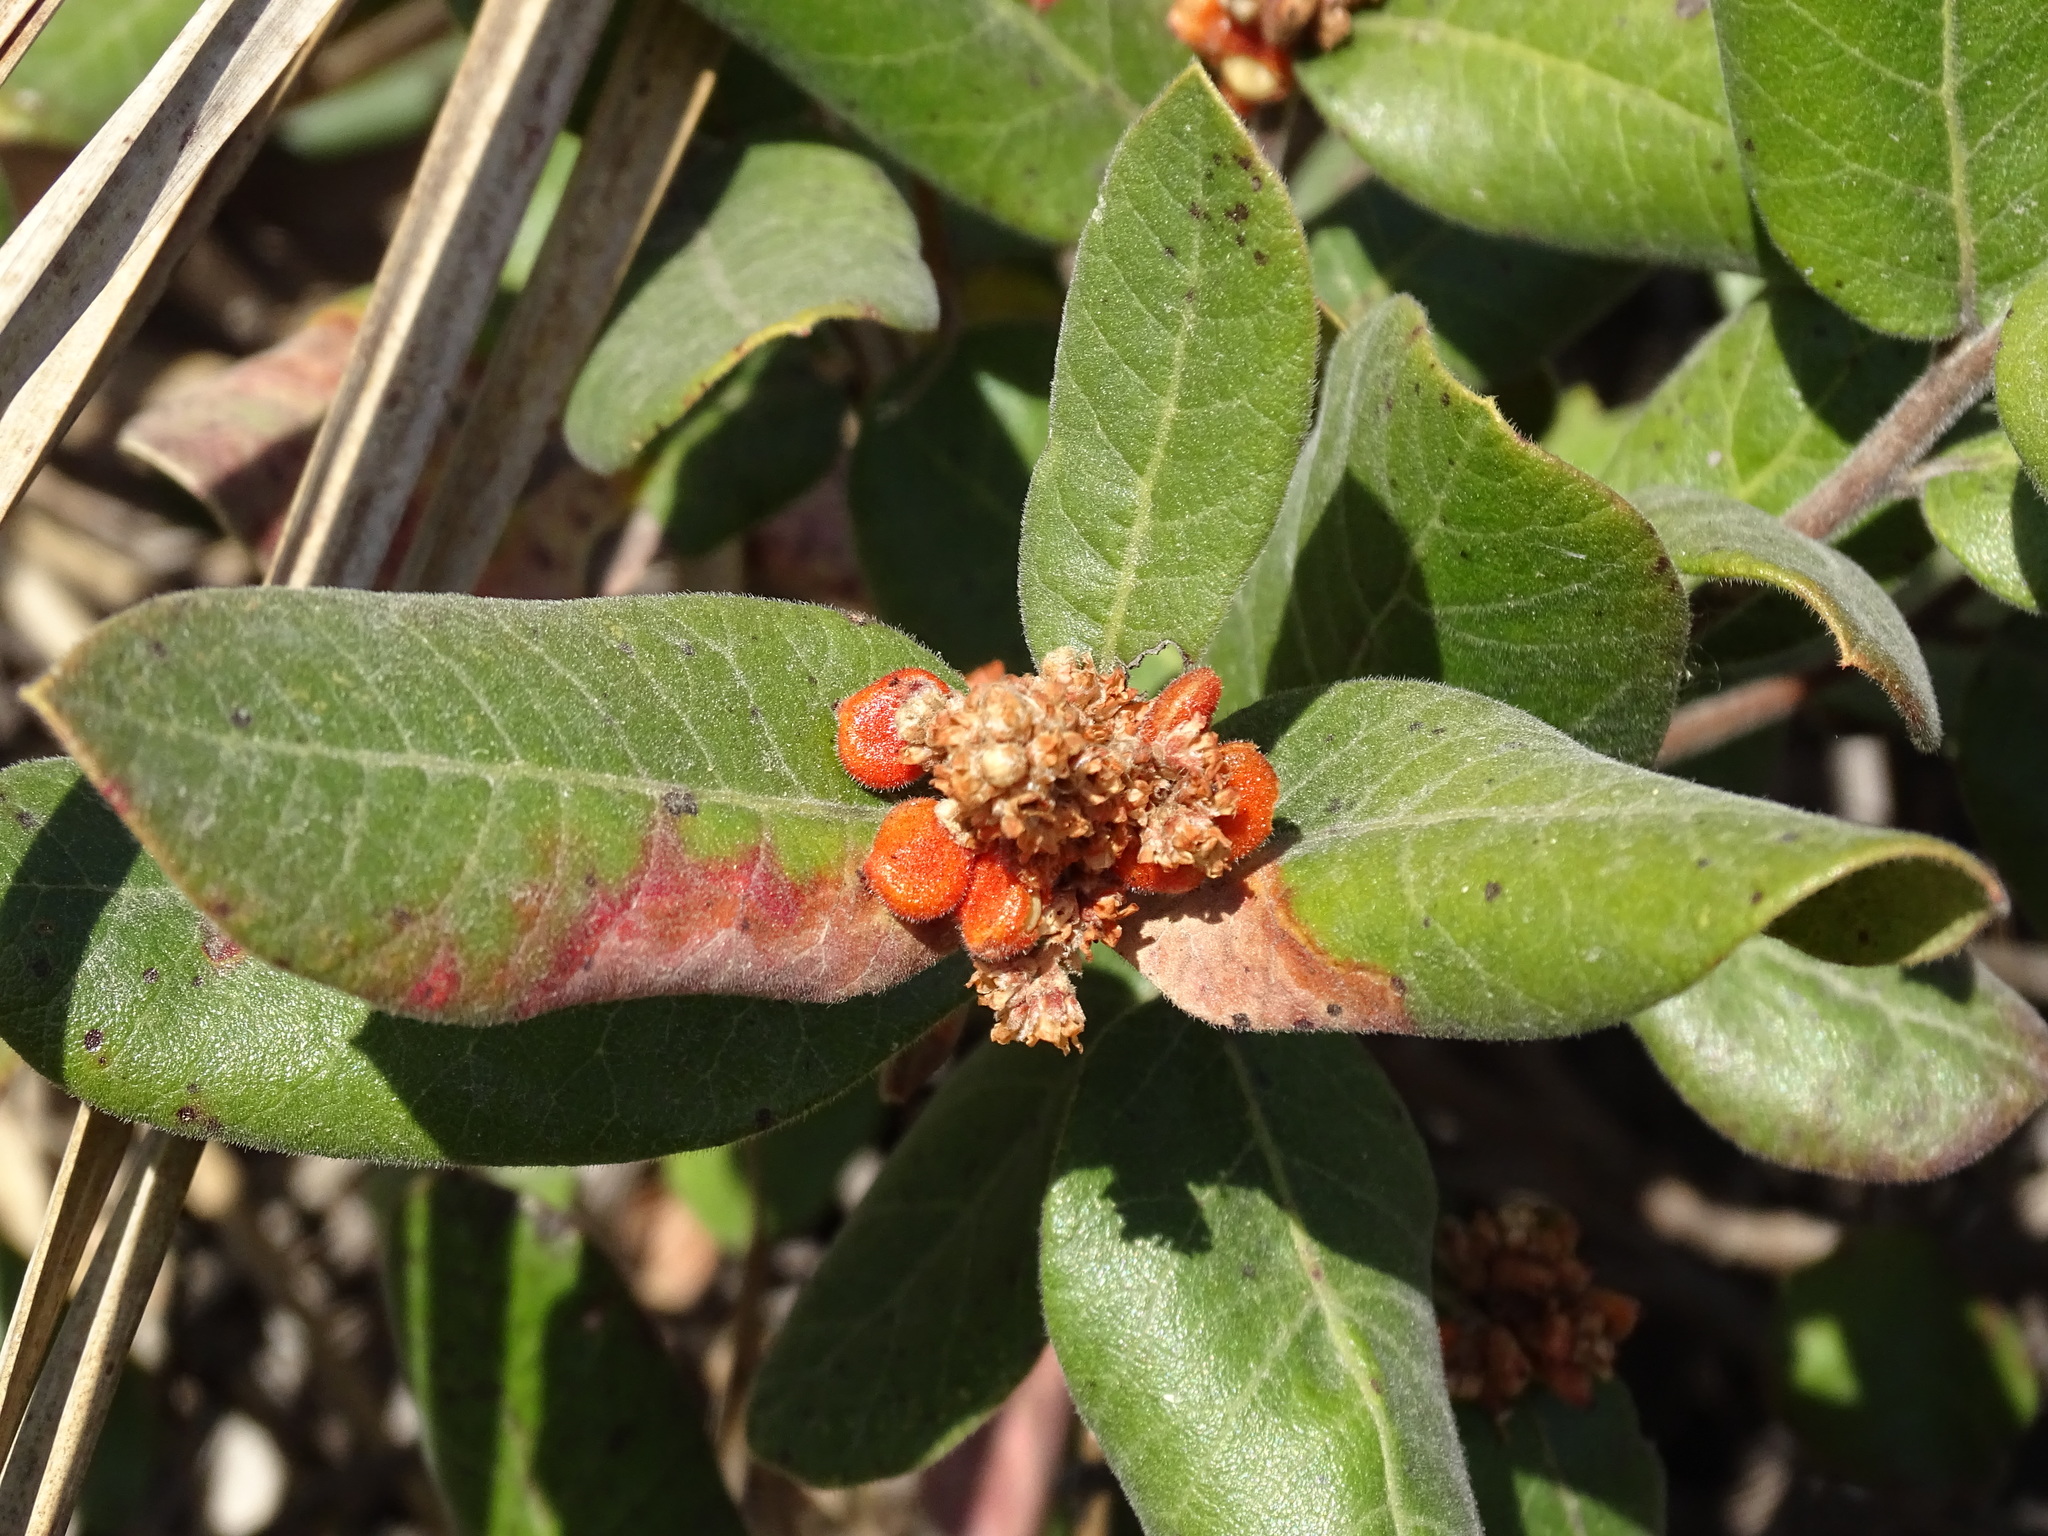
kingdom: Plantae
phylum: Tracheophyta
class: Magnoliopsida
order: Sapindales
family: Anacardiaceae
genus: Rhus
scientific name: Rhus standleyi
